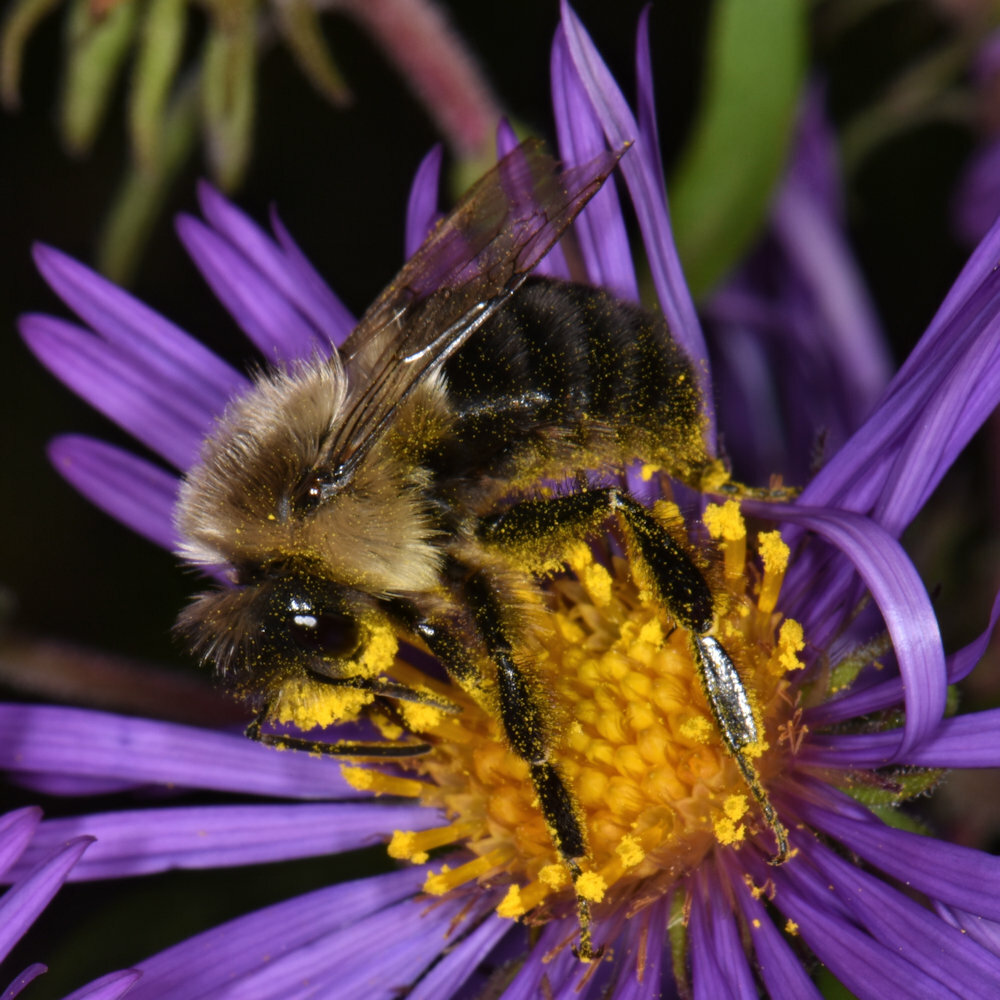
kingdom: Animalia
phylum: Arthropoda
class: Insecta
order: Hymenoptera
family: Apidae
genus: Bombus
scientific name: Bombus impatiens
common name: Common eastern bumble bee
